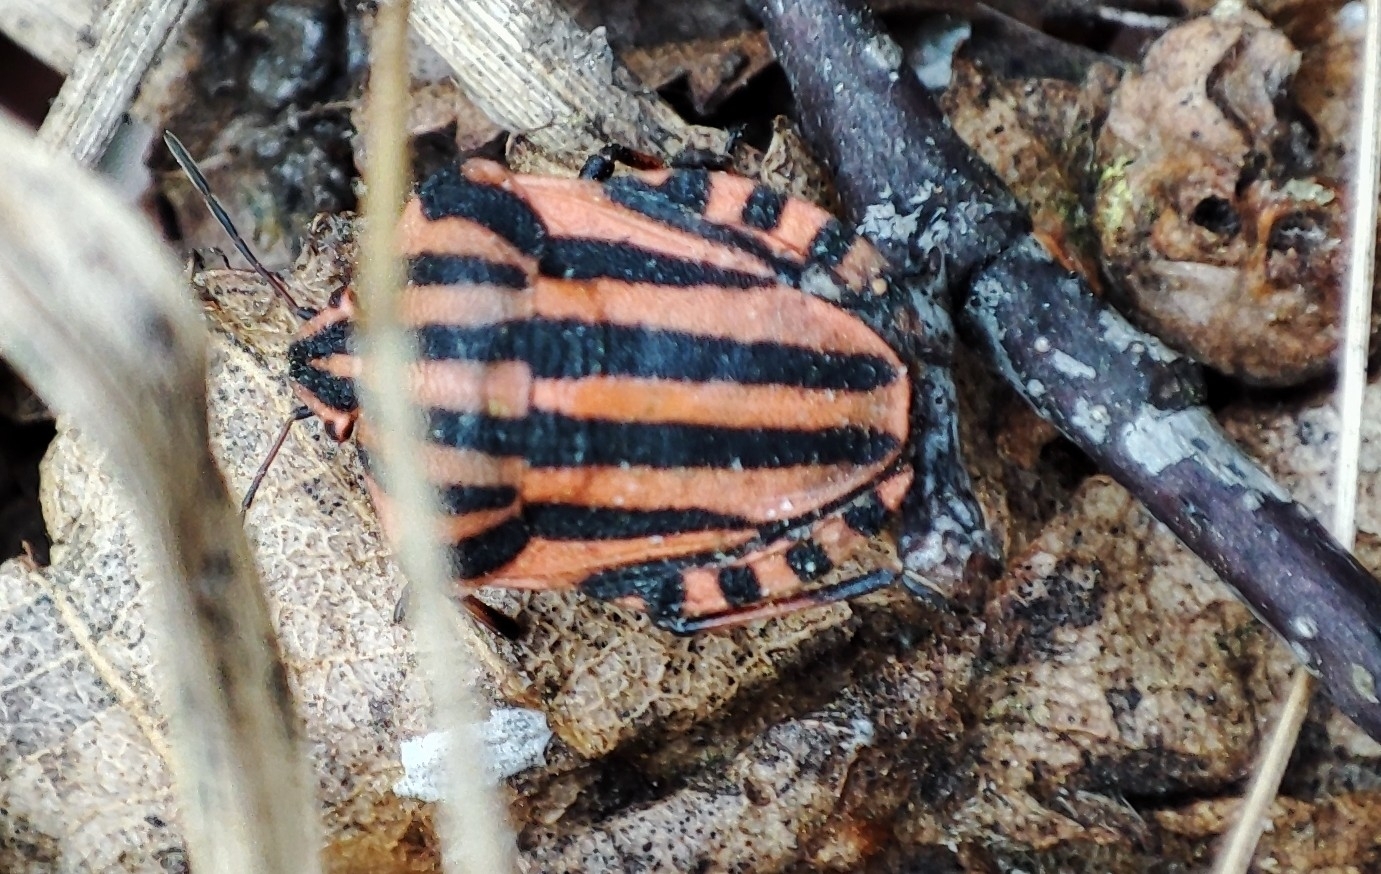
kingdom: Animalia
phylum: Arthropoda
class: Insecta
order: Hemiptera
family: Pentatomidae
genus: Graphosoma
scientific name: Graphosoma italicum
